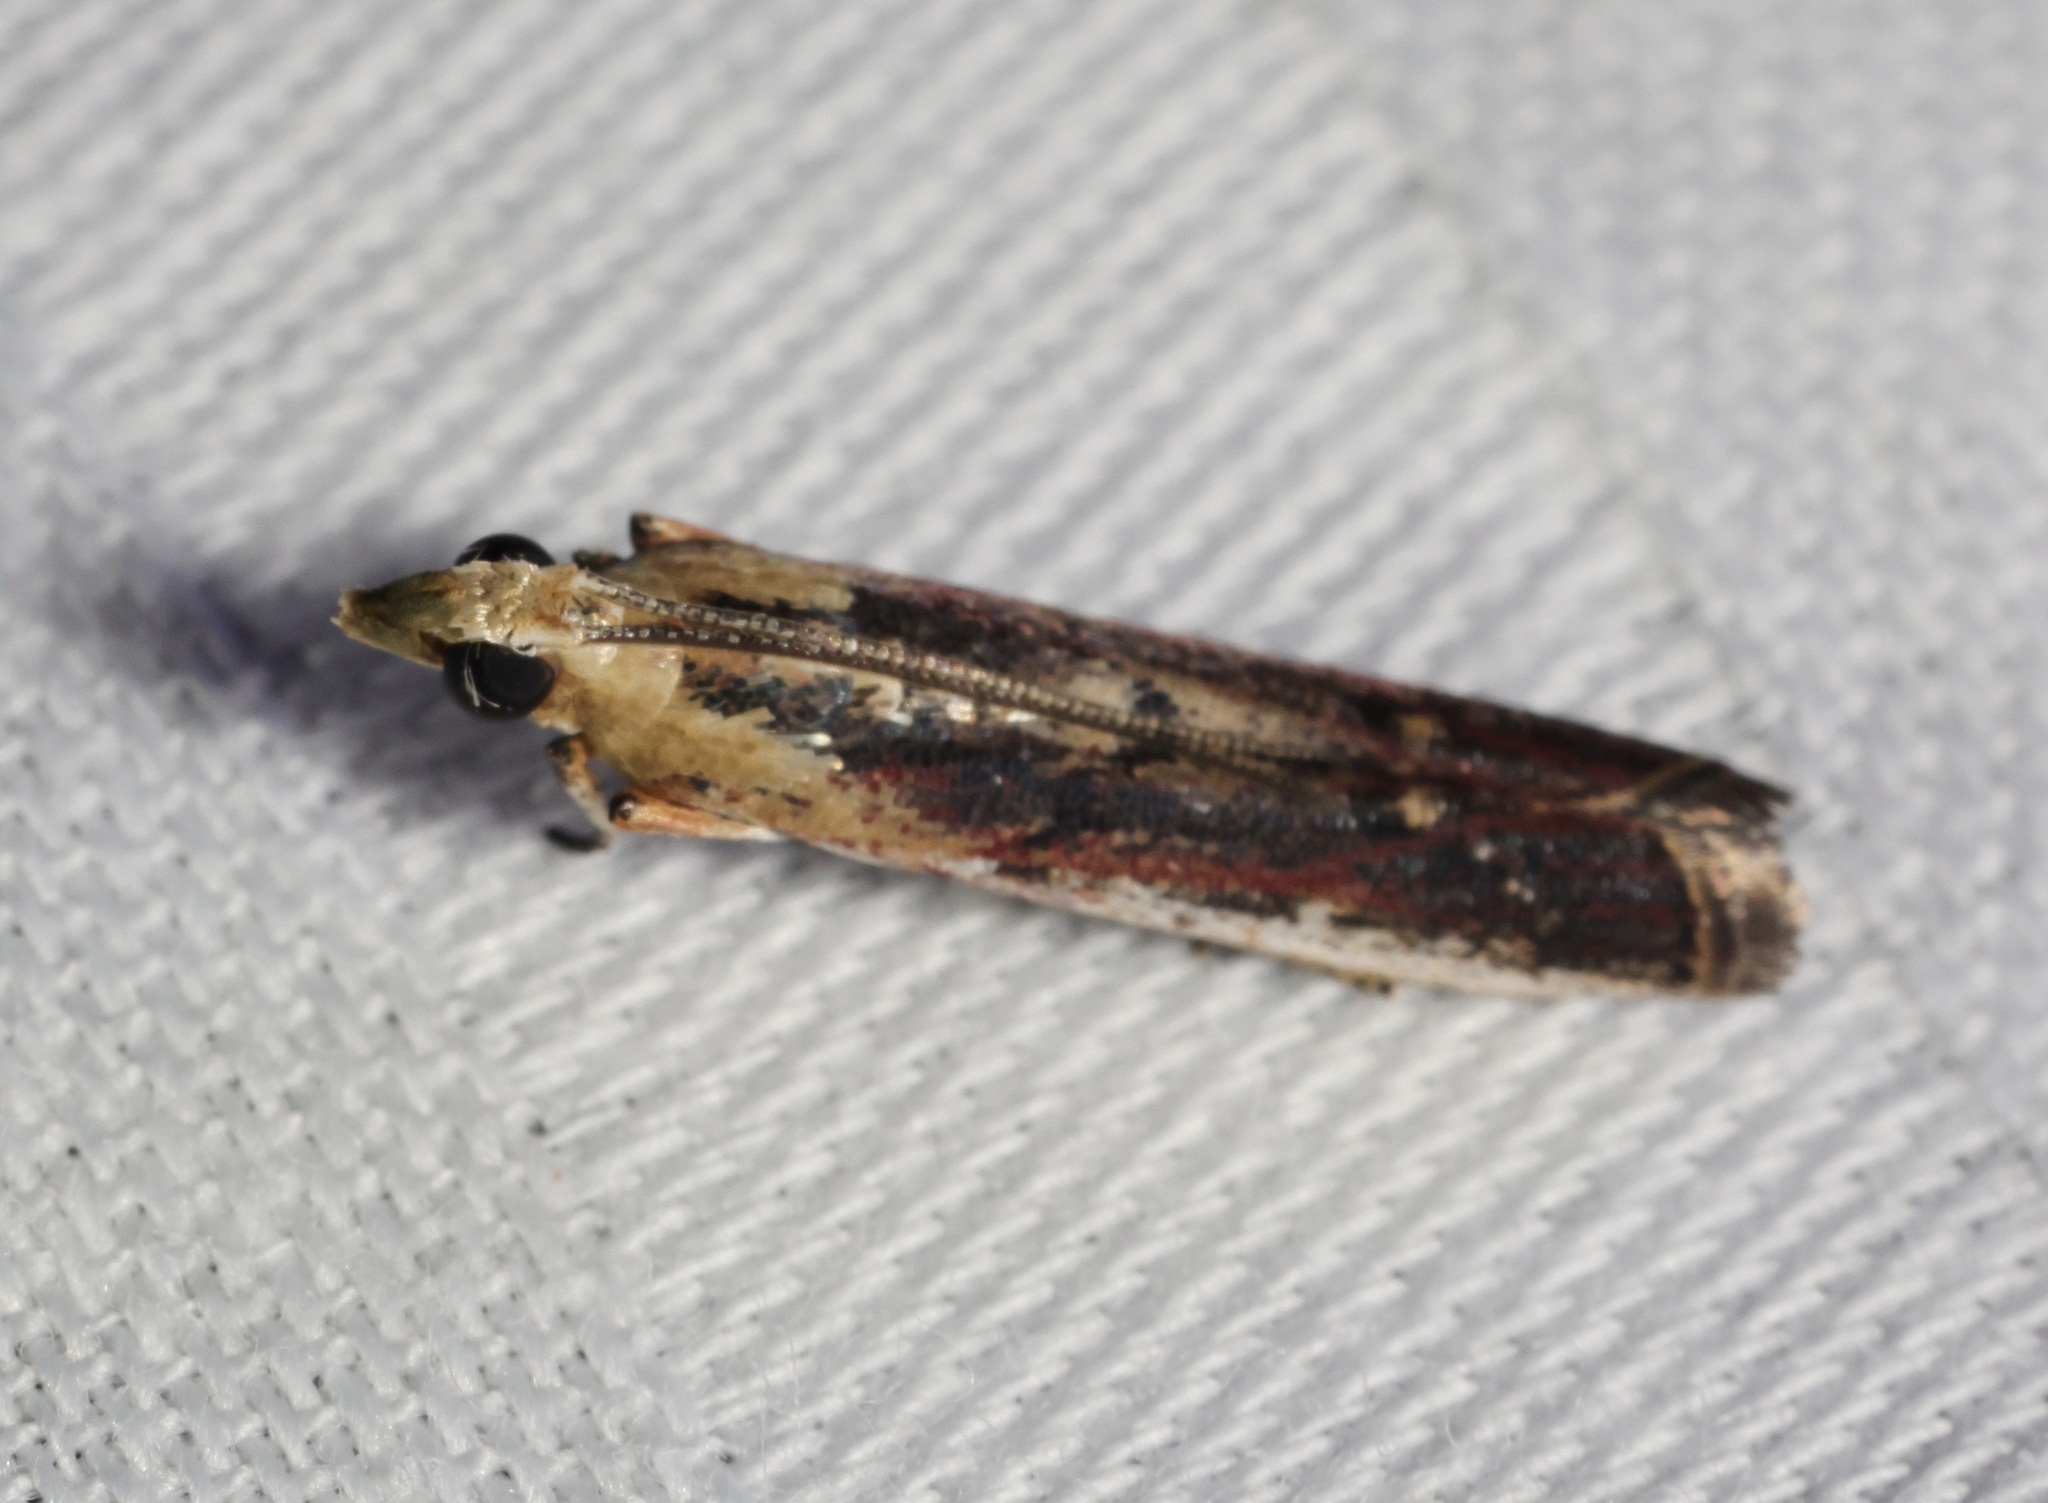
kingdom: Animalia
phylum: Arthropoda
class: Insecta
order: Lepidoptera
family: Pyralidae
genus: Cathyalia
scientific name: Cathyalia
